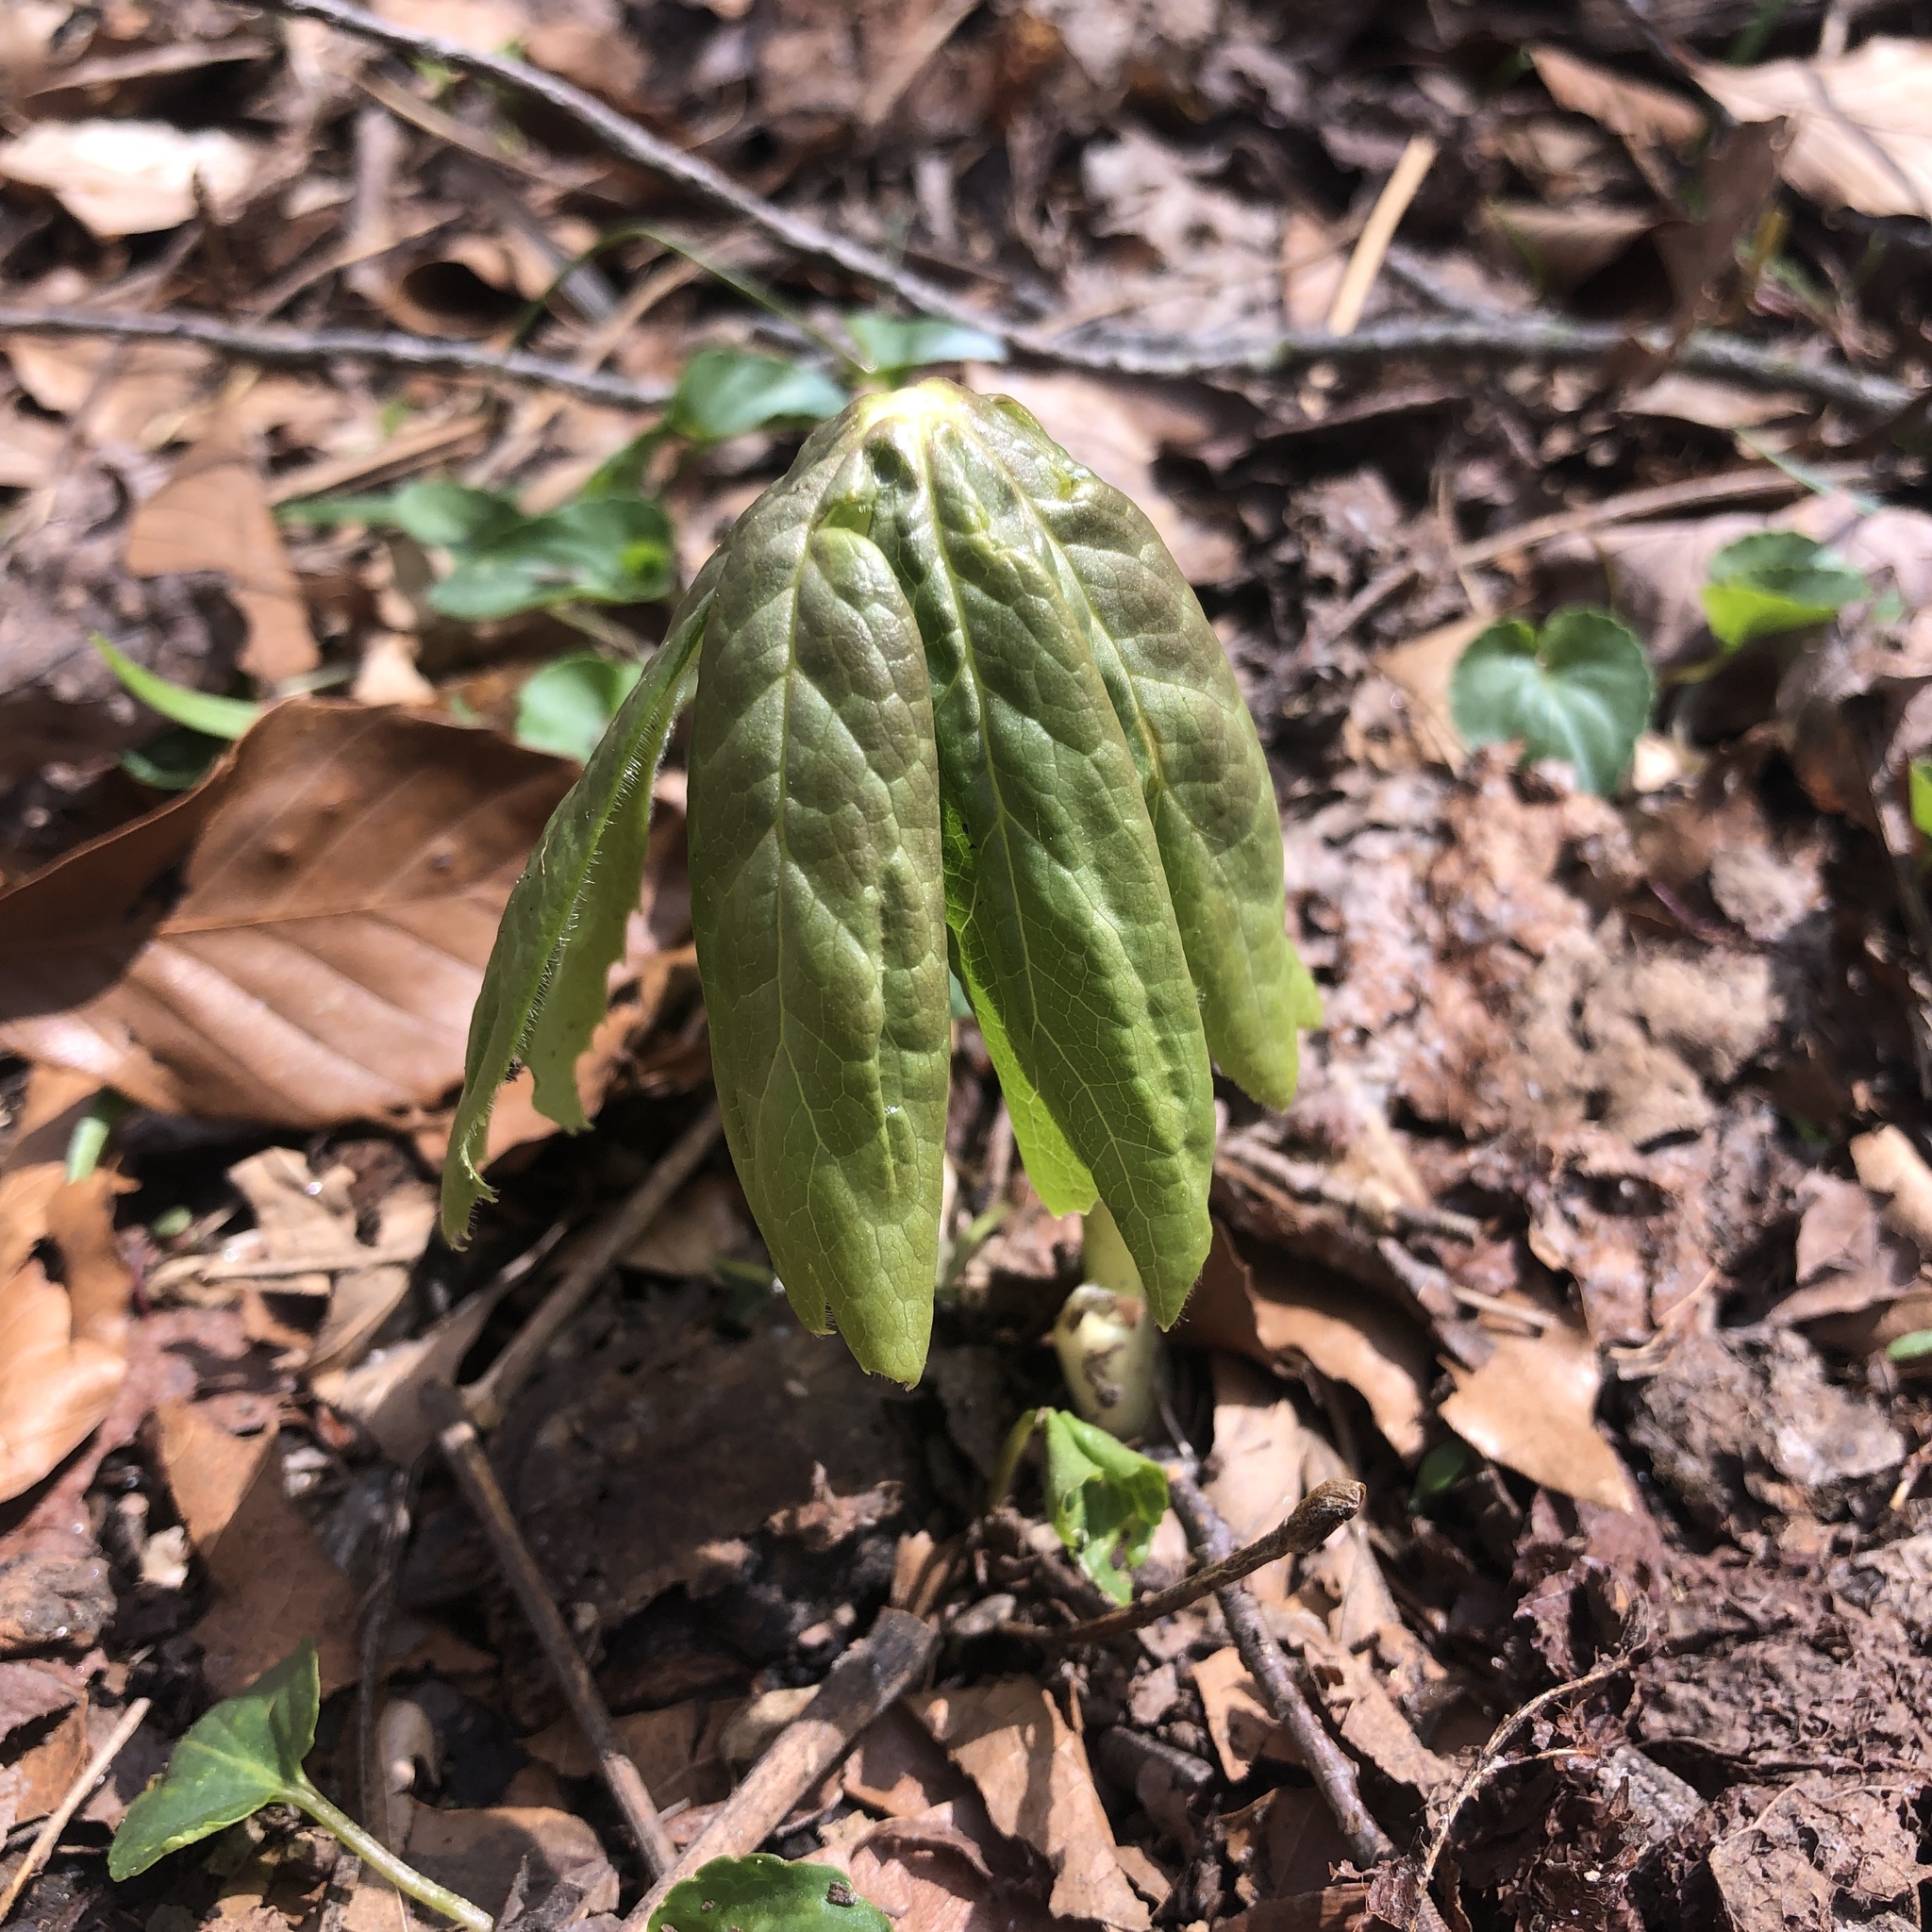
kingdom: Plantae
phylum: Tracheophyta
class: Magnoliopsida
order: Ranunculales
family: Berberidaceae
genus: Podophyllum
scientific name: Podophyllum peltatum
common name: Wild mandrake
